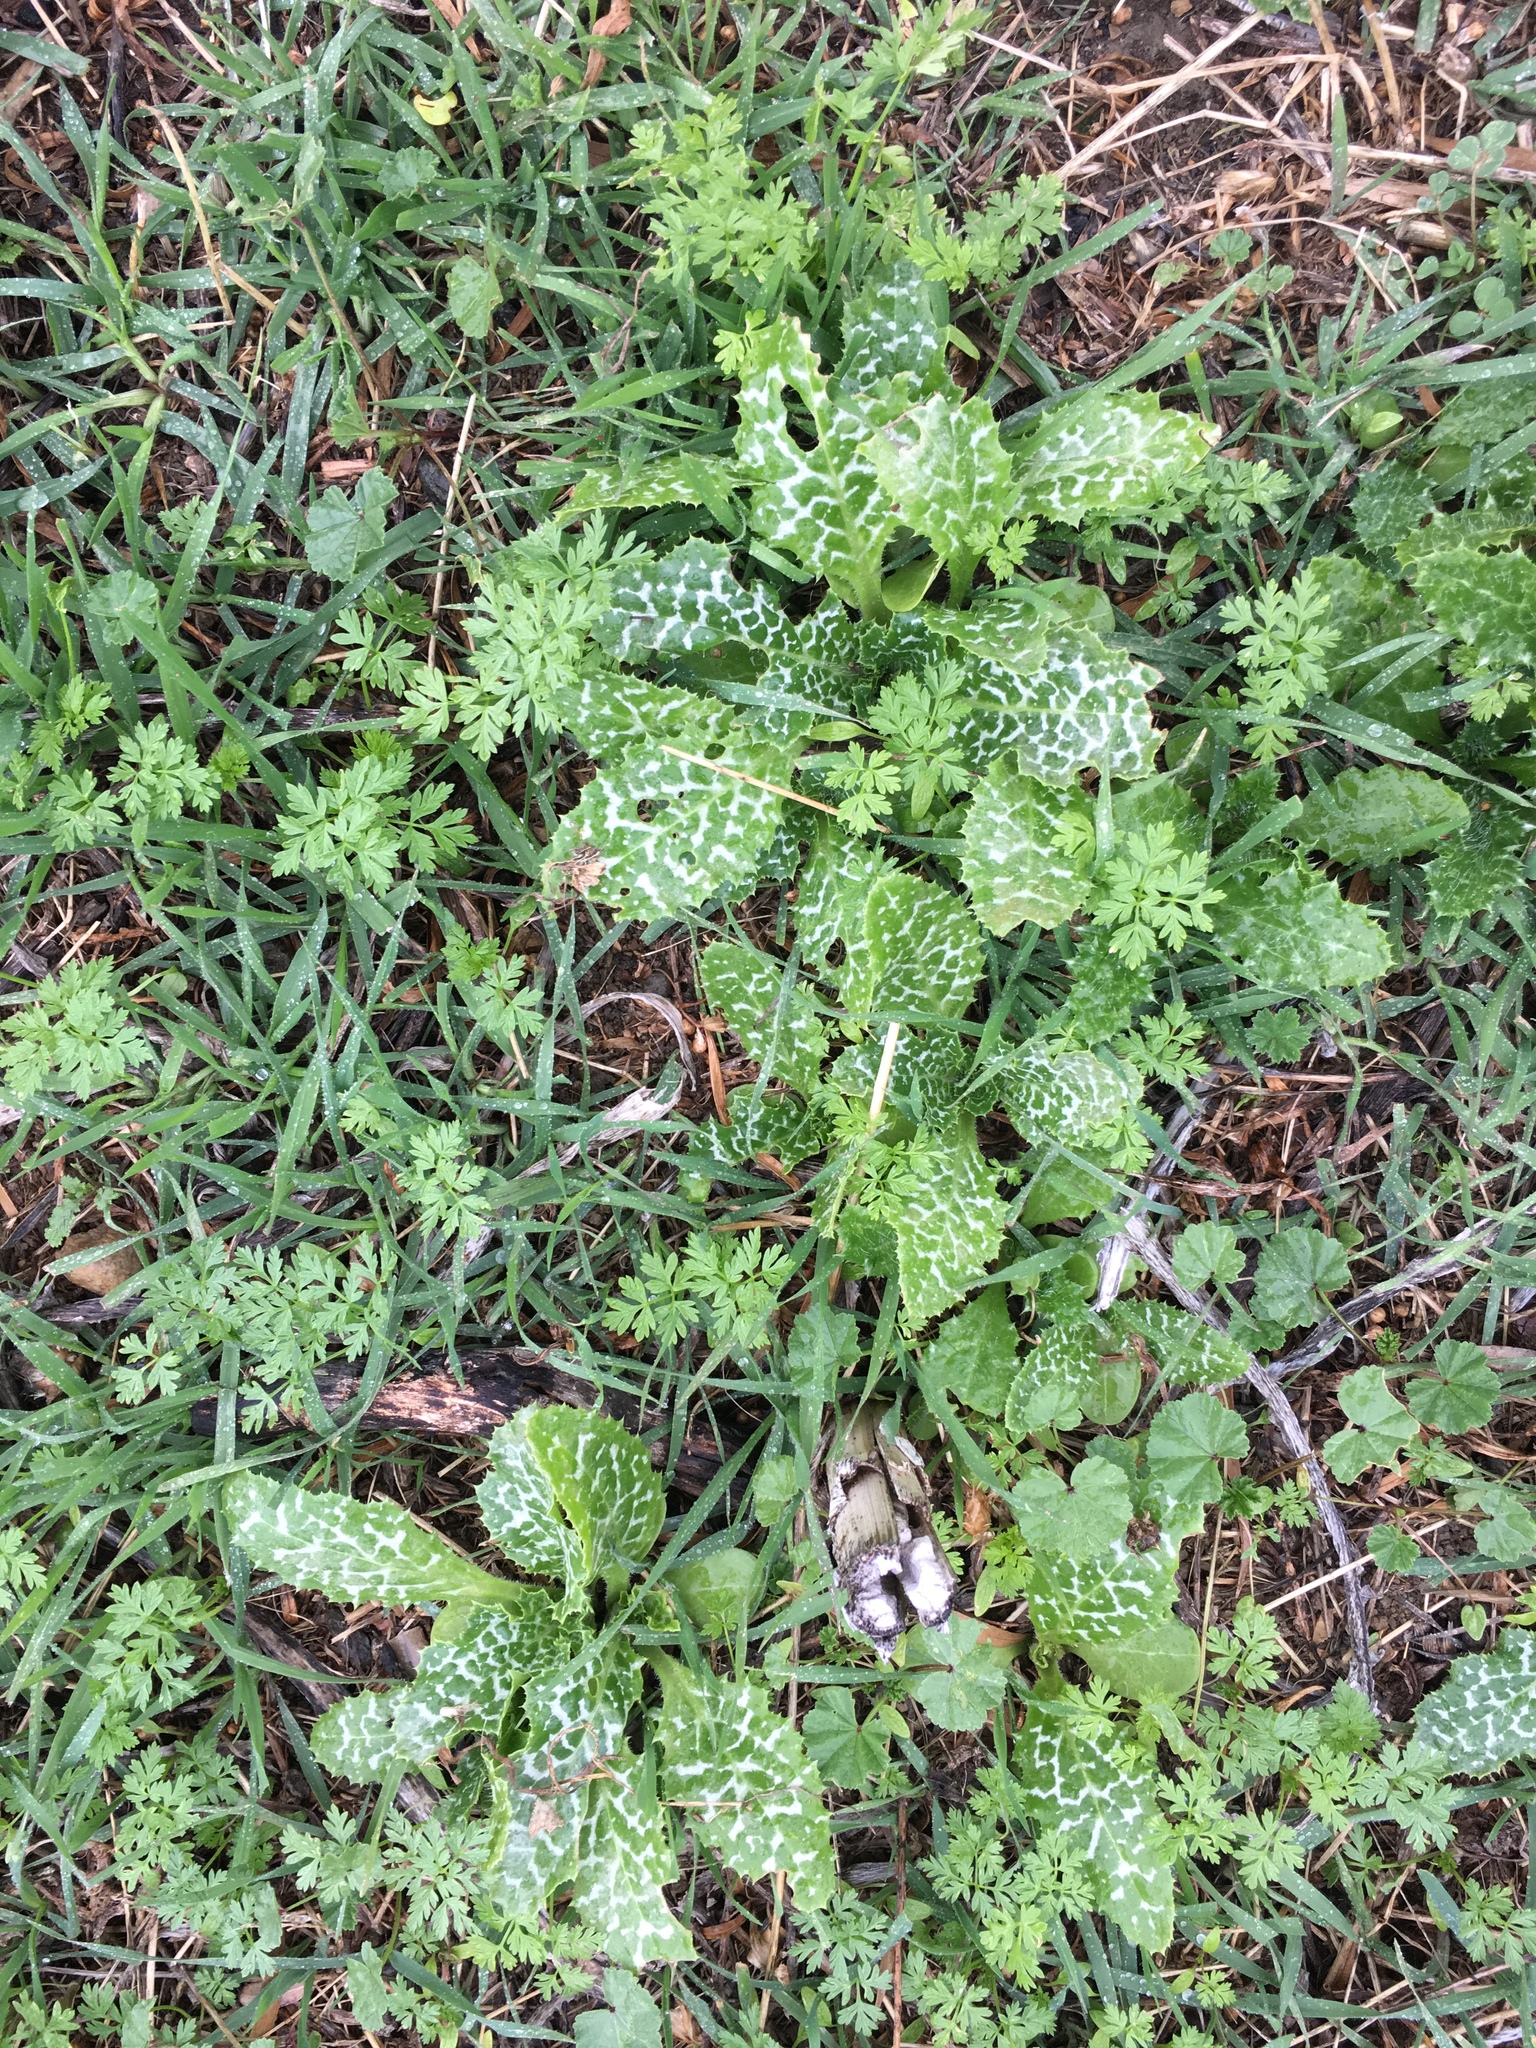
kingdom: Plantae
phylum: Tracheophyta
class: Magnoliopsida
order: Asterales
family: Asteraceae
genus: Silybum
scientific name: Silybum marianum
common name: Milk thistle
